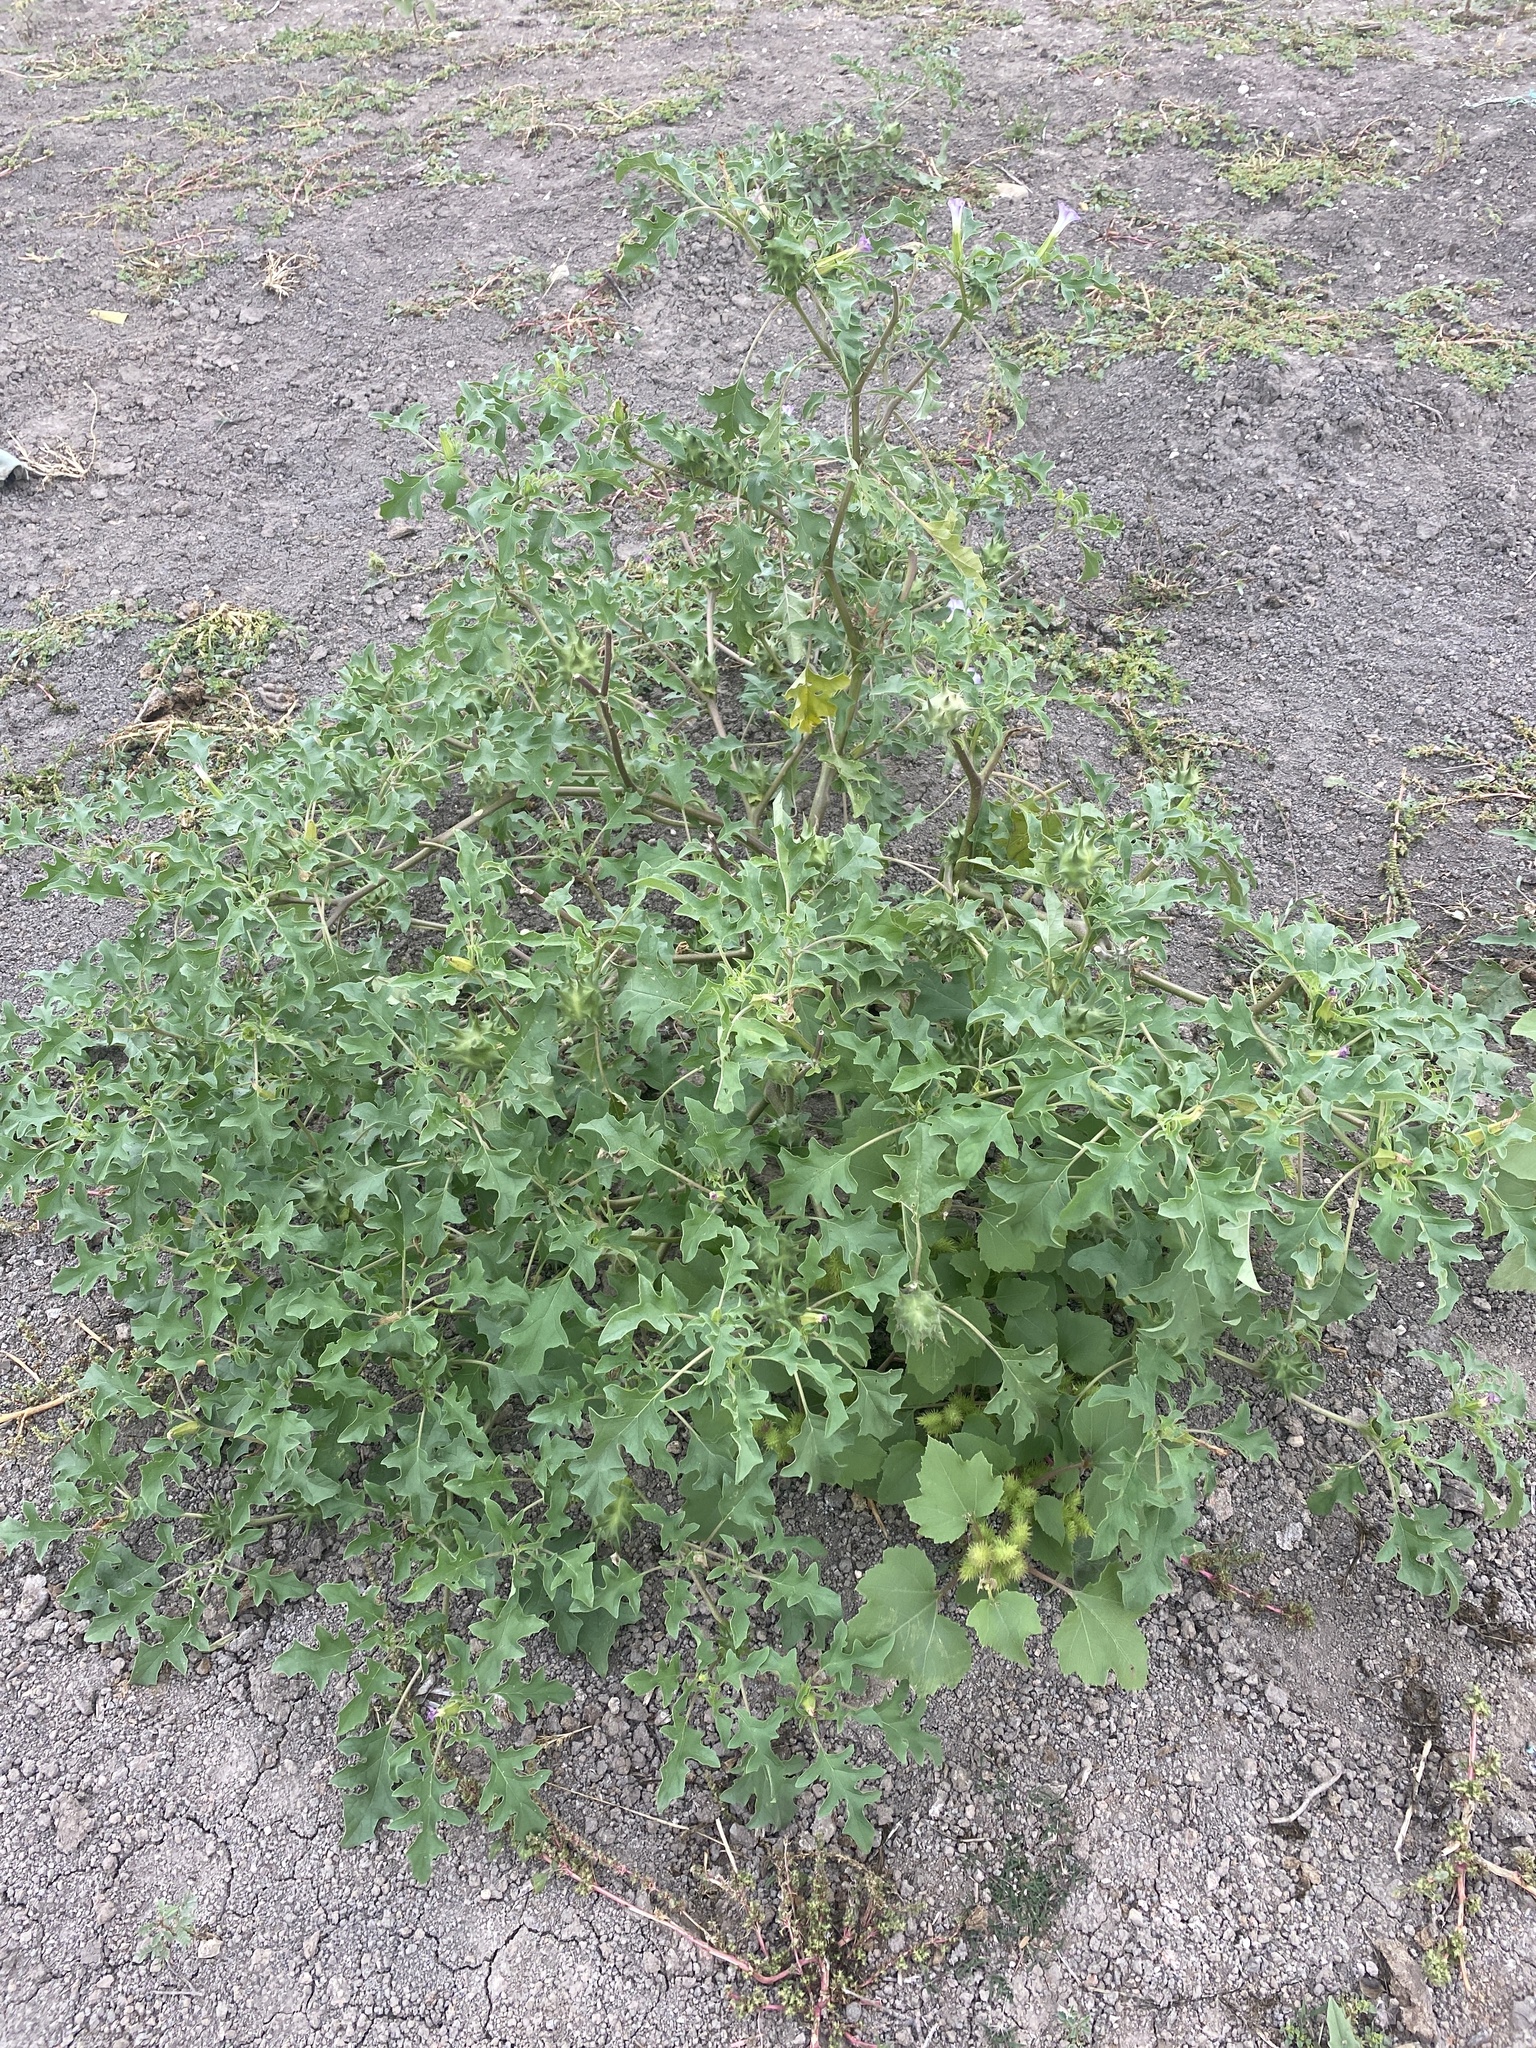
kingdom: Plantae
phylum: Tracheophyta
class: Magnoliopsida
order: Solanales
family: Solanaceae
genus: Datura
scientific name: Datura quercifolia
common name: Oak-leaf datura
